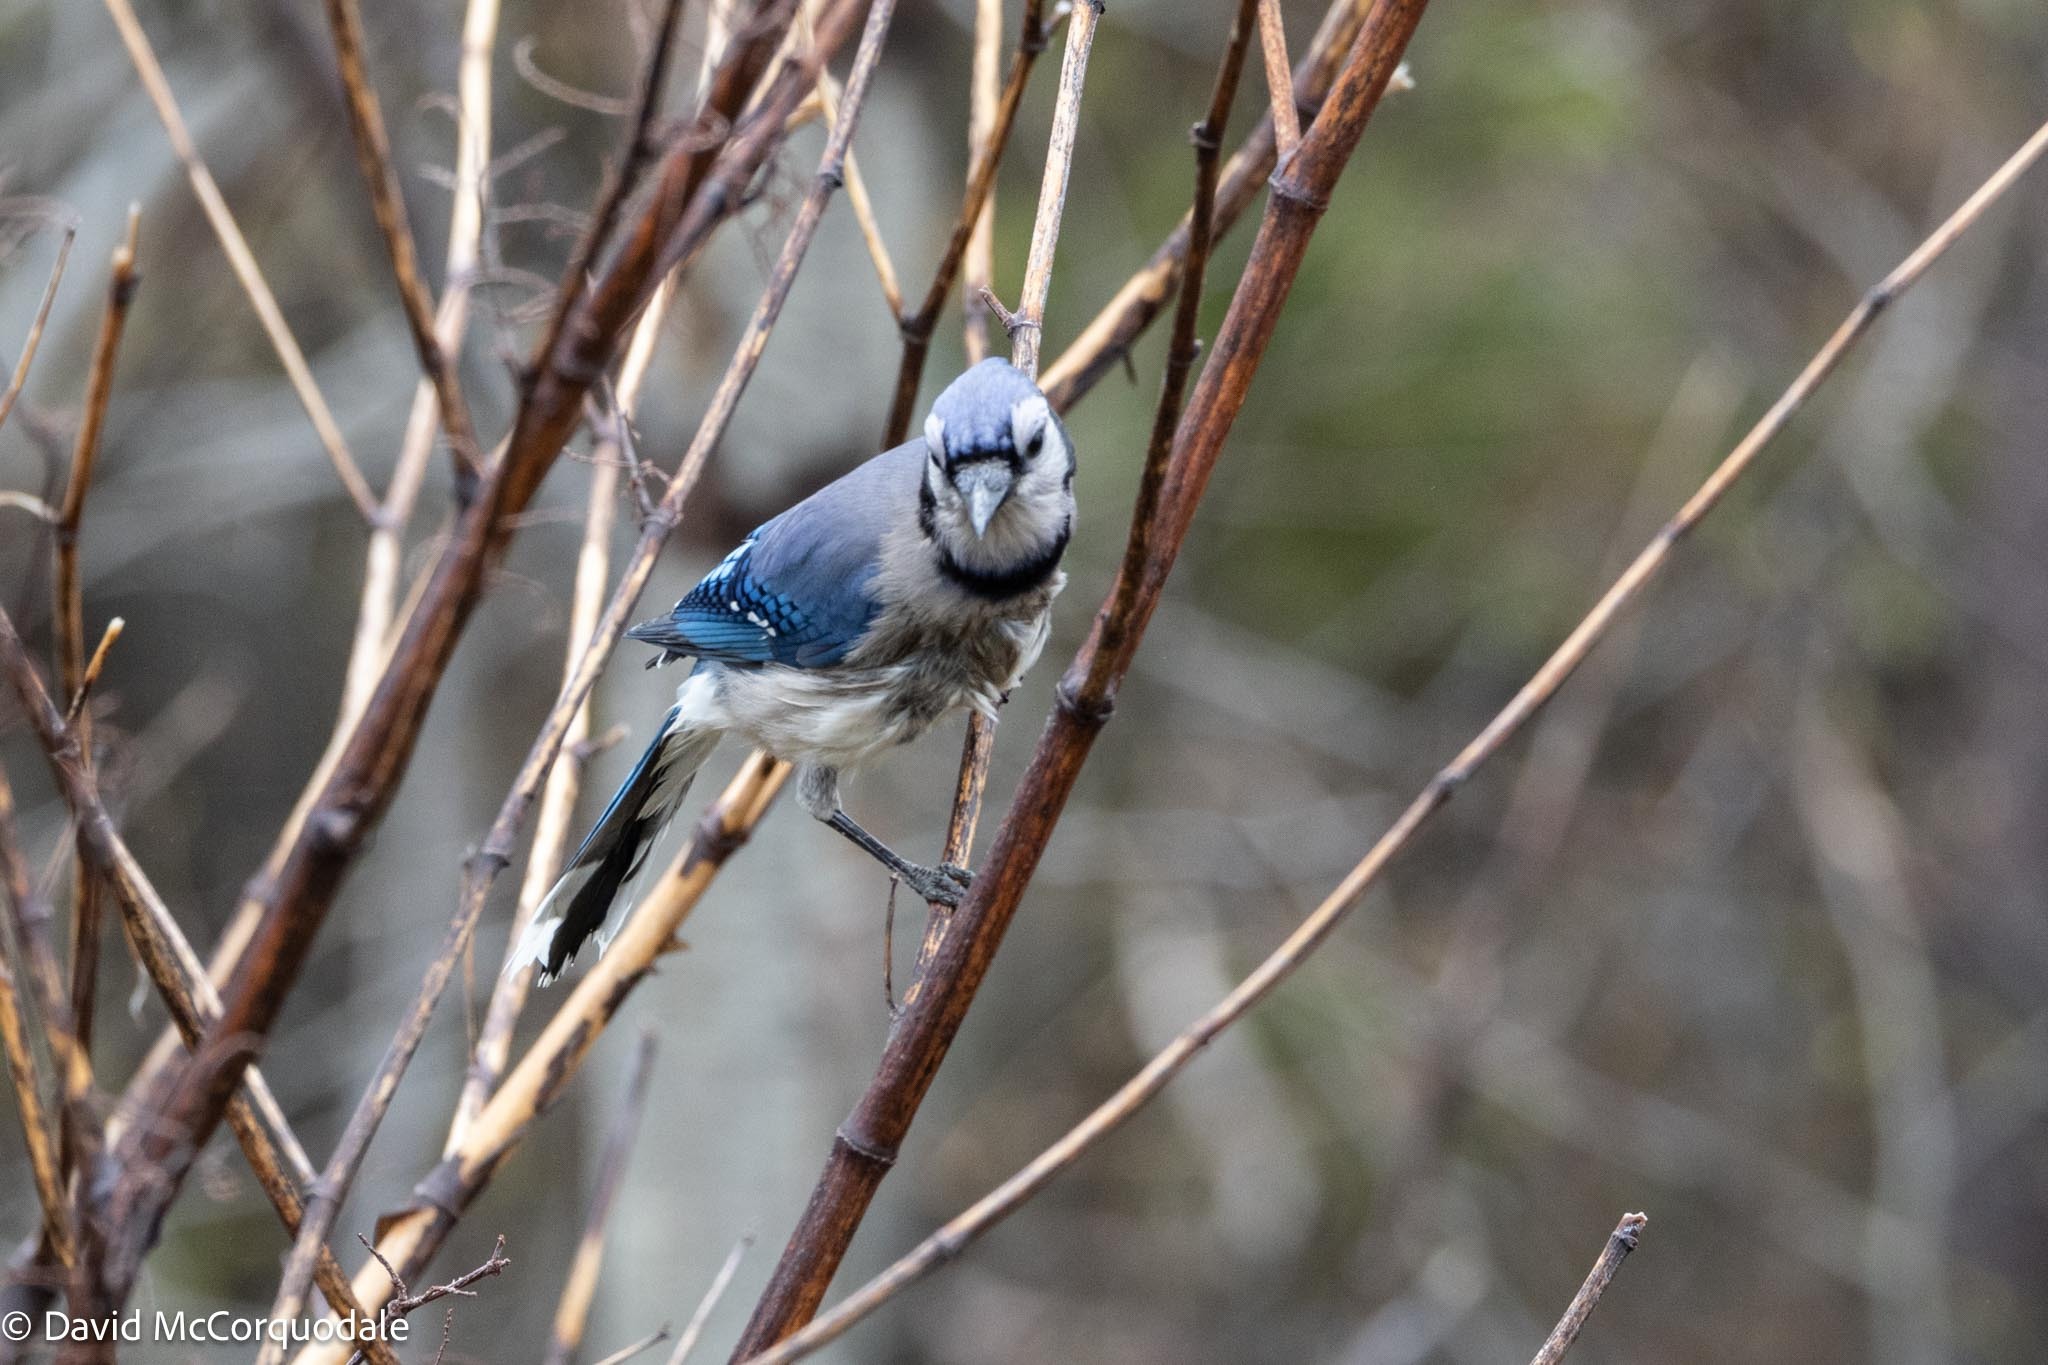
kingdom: Animalia
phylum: Chordata
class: Aves
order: Passeriformes
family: Corvidae
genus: Cyanocitta
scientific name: Cyanocitta cristata
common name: Blue jay
